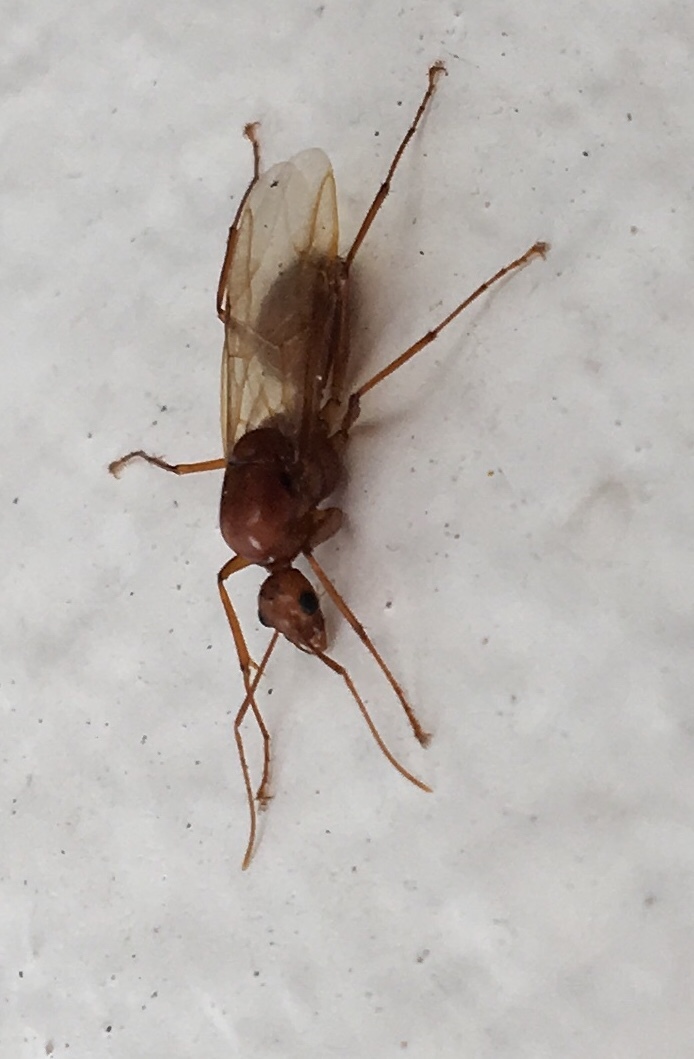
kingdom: Animalia
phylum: Arthropoda
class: Insecta
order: Hymenoptera
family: Formicidae
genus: Camponotus
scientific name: Camponotus castaneus
